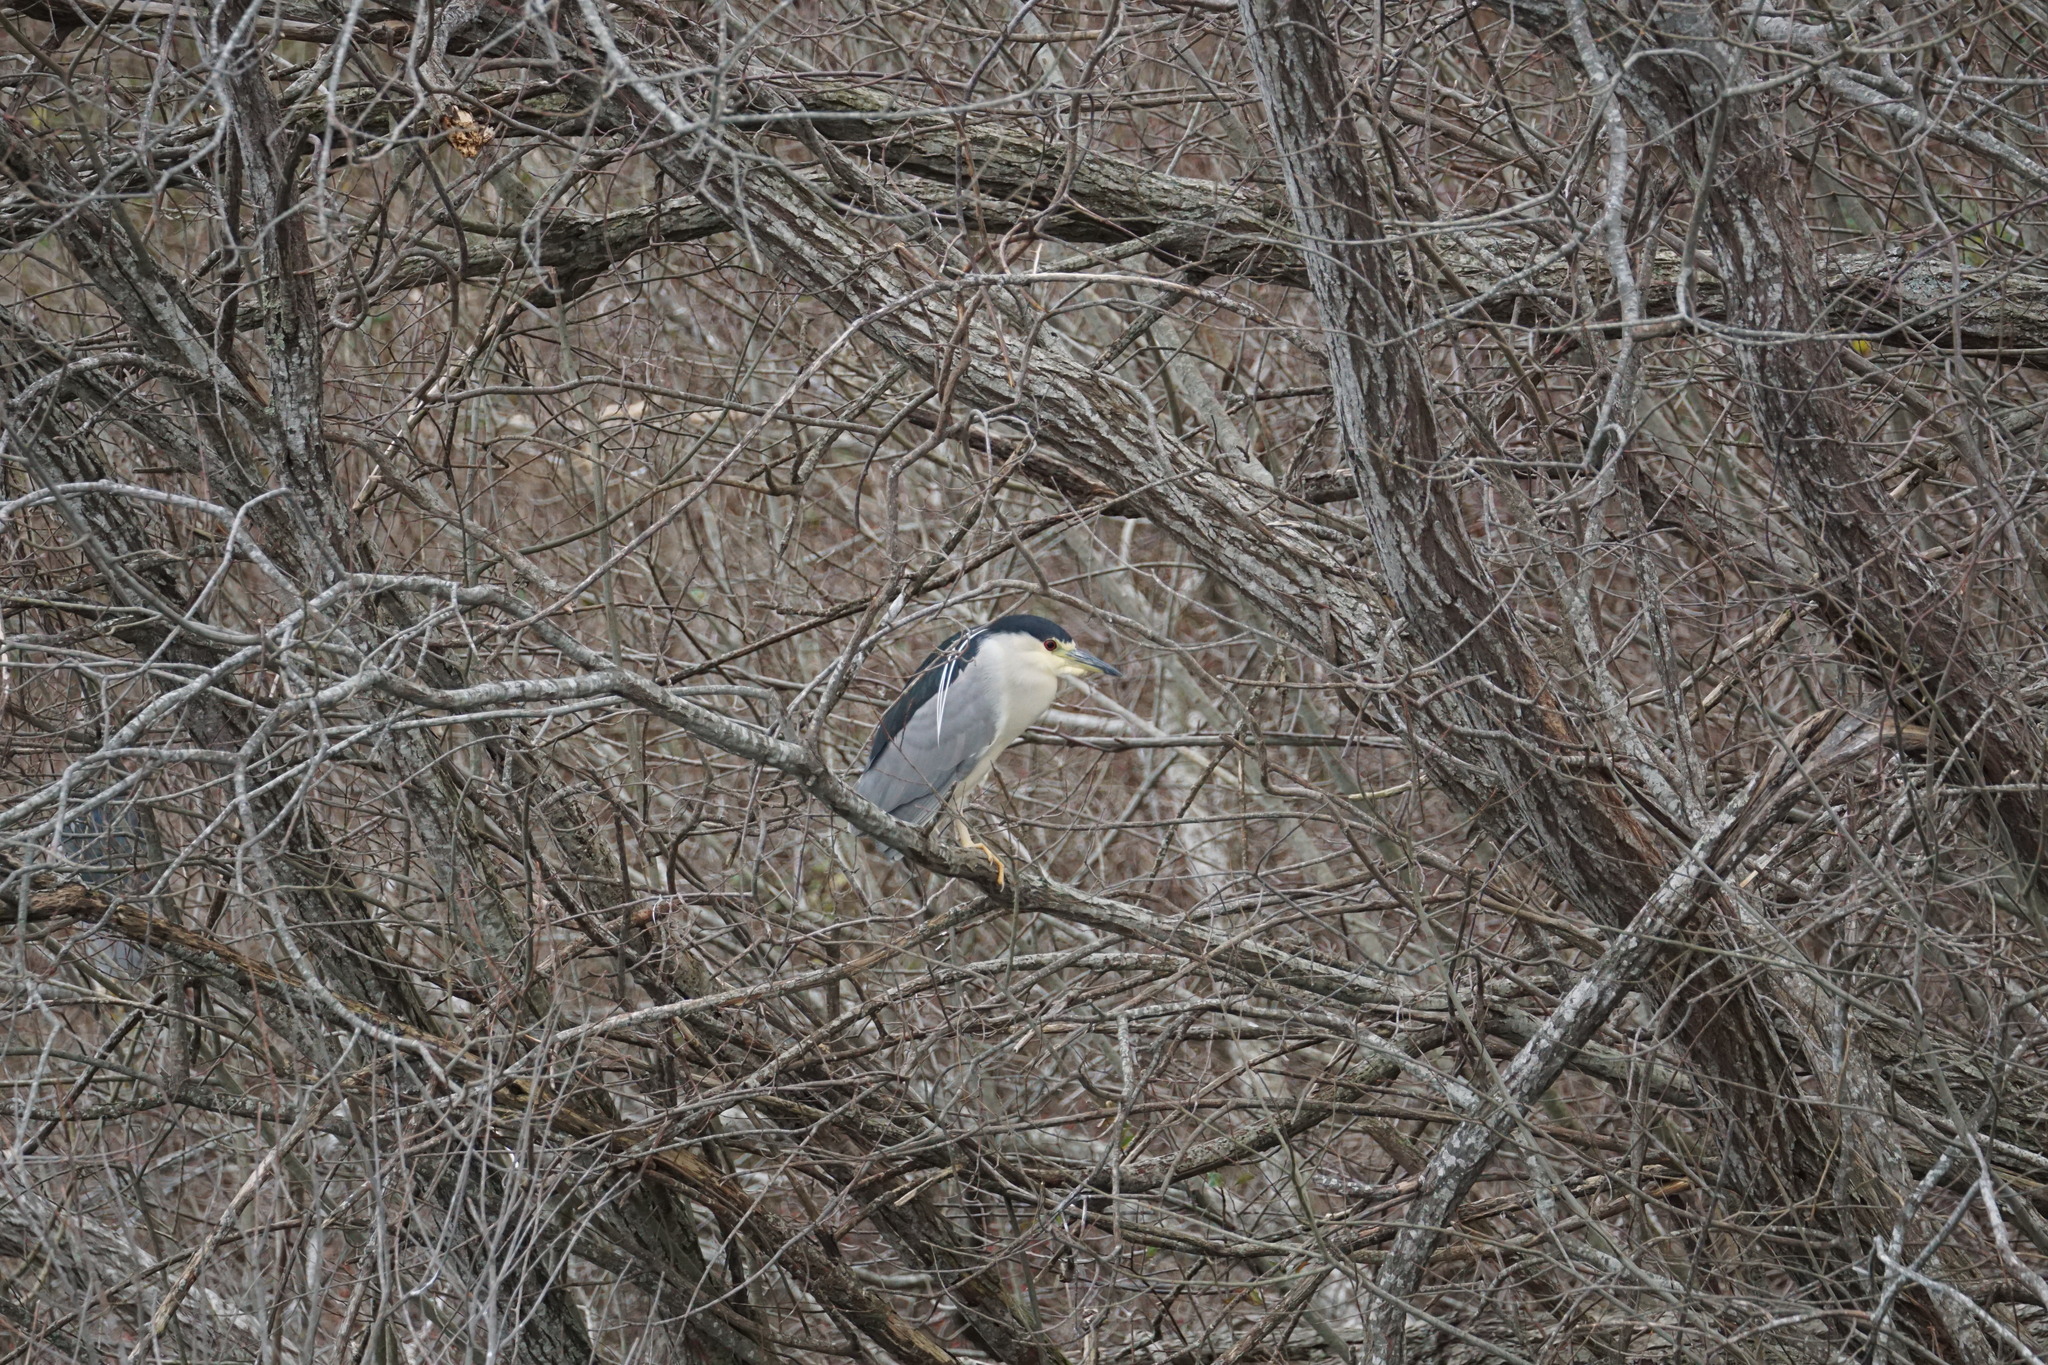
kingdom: Animalia
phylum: Chordata
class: Aves
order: Pelecaniformes
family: Ardeidae
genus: Nycticorax
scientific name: Nycticorax nycticorax
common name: Black-crowned night heron
